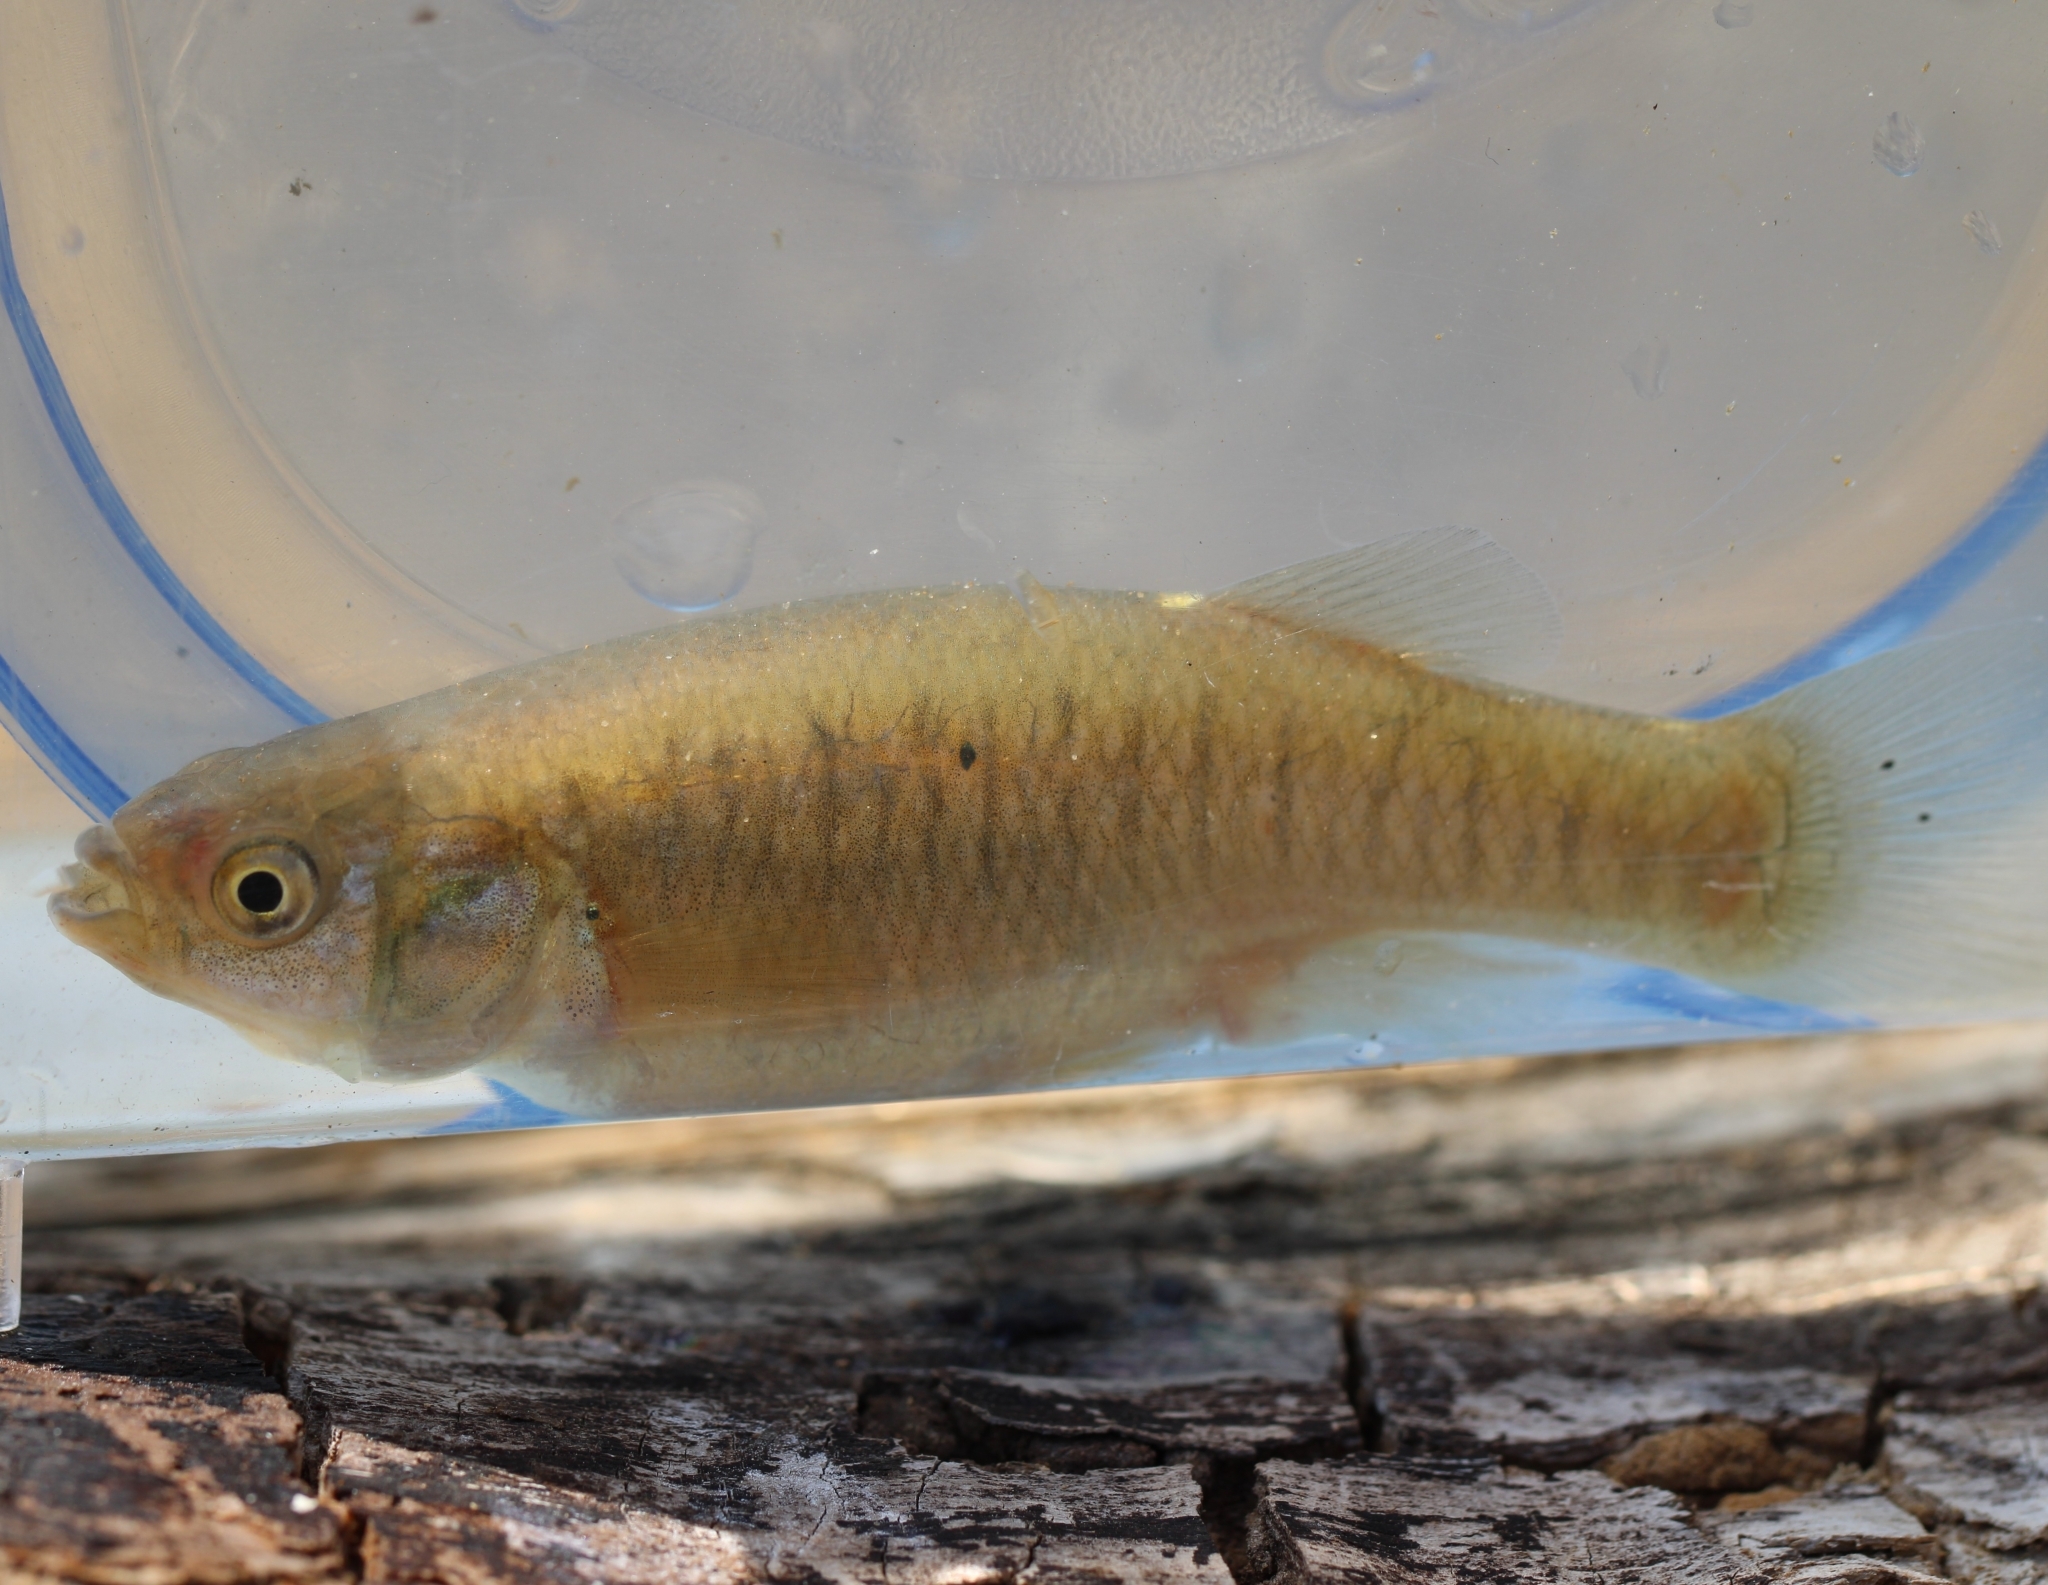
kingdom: Animalia
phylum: Chordata
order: Cyprinodontiformes
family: Fundulidae
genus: Fundulus
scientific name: Fundulus heteroclitus
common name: Mummichog
